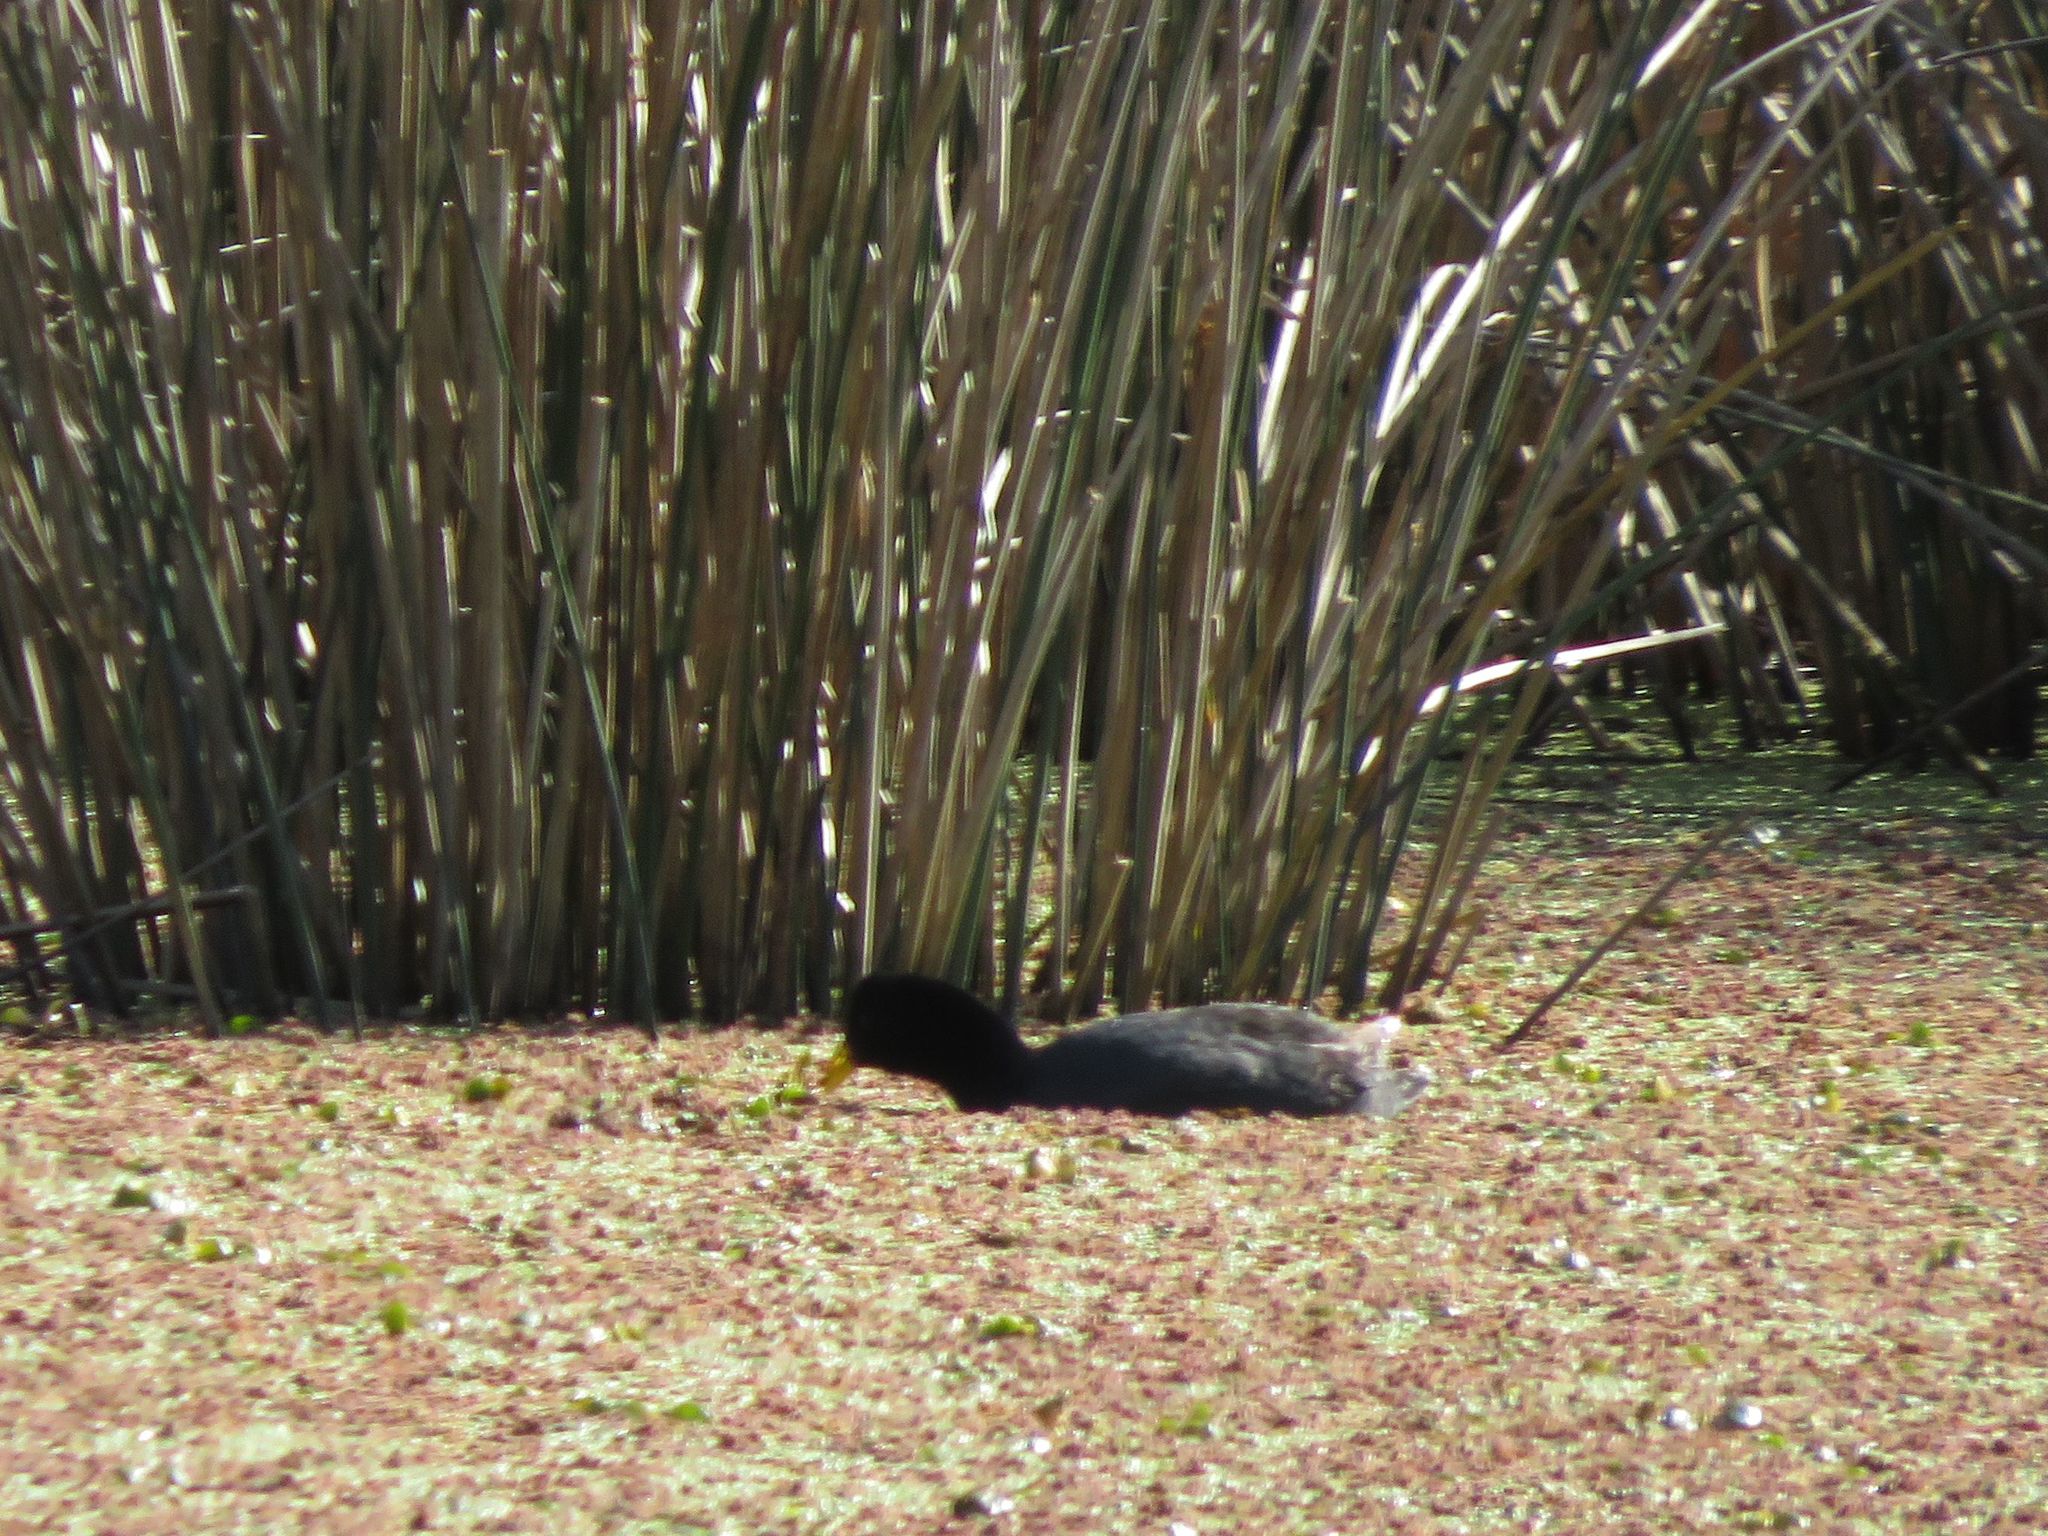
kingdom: Animalia
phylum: Chordata
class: Aves
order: Gruiformes
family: Rallidae
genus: Fulica
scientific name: Fulica rufifrons
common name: Red-fronted coot
